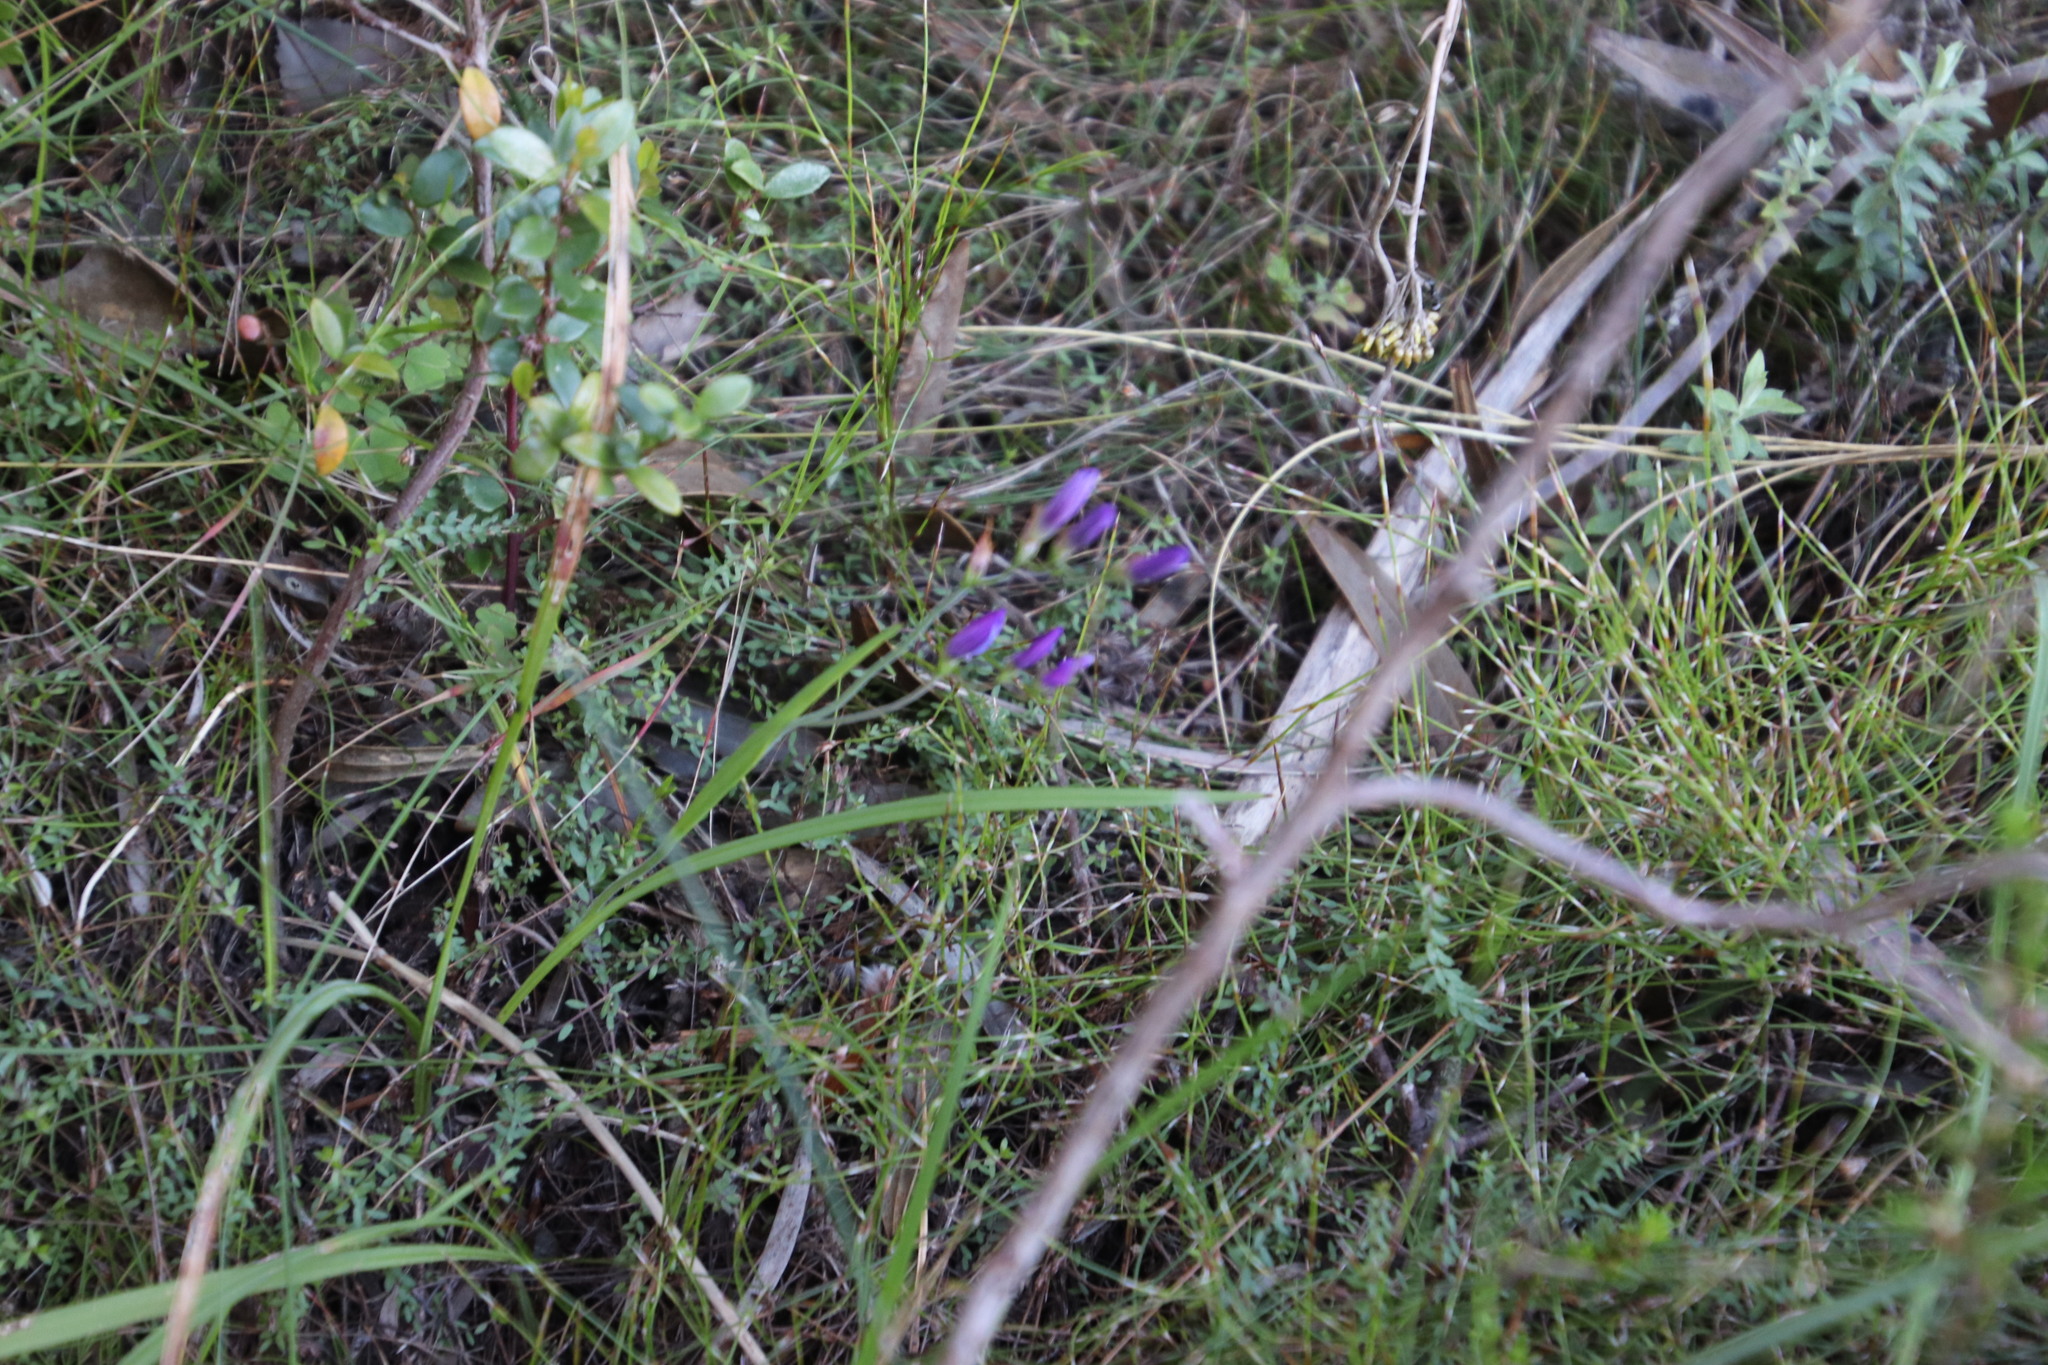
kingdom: Plantae
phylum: Tracheophyta
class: Liliopsida
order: Asparagales
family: Iridaceae
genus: Geissorhiza
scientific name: Geissorhiza aspera
